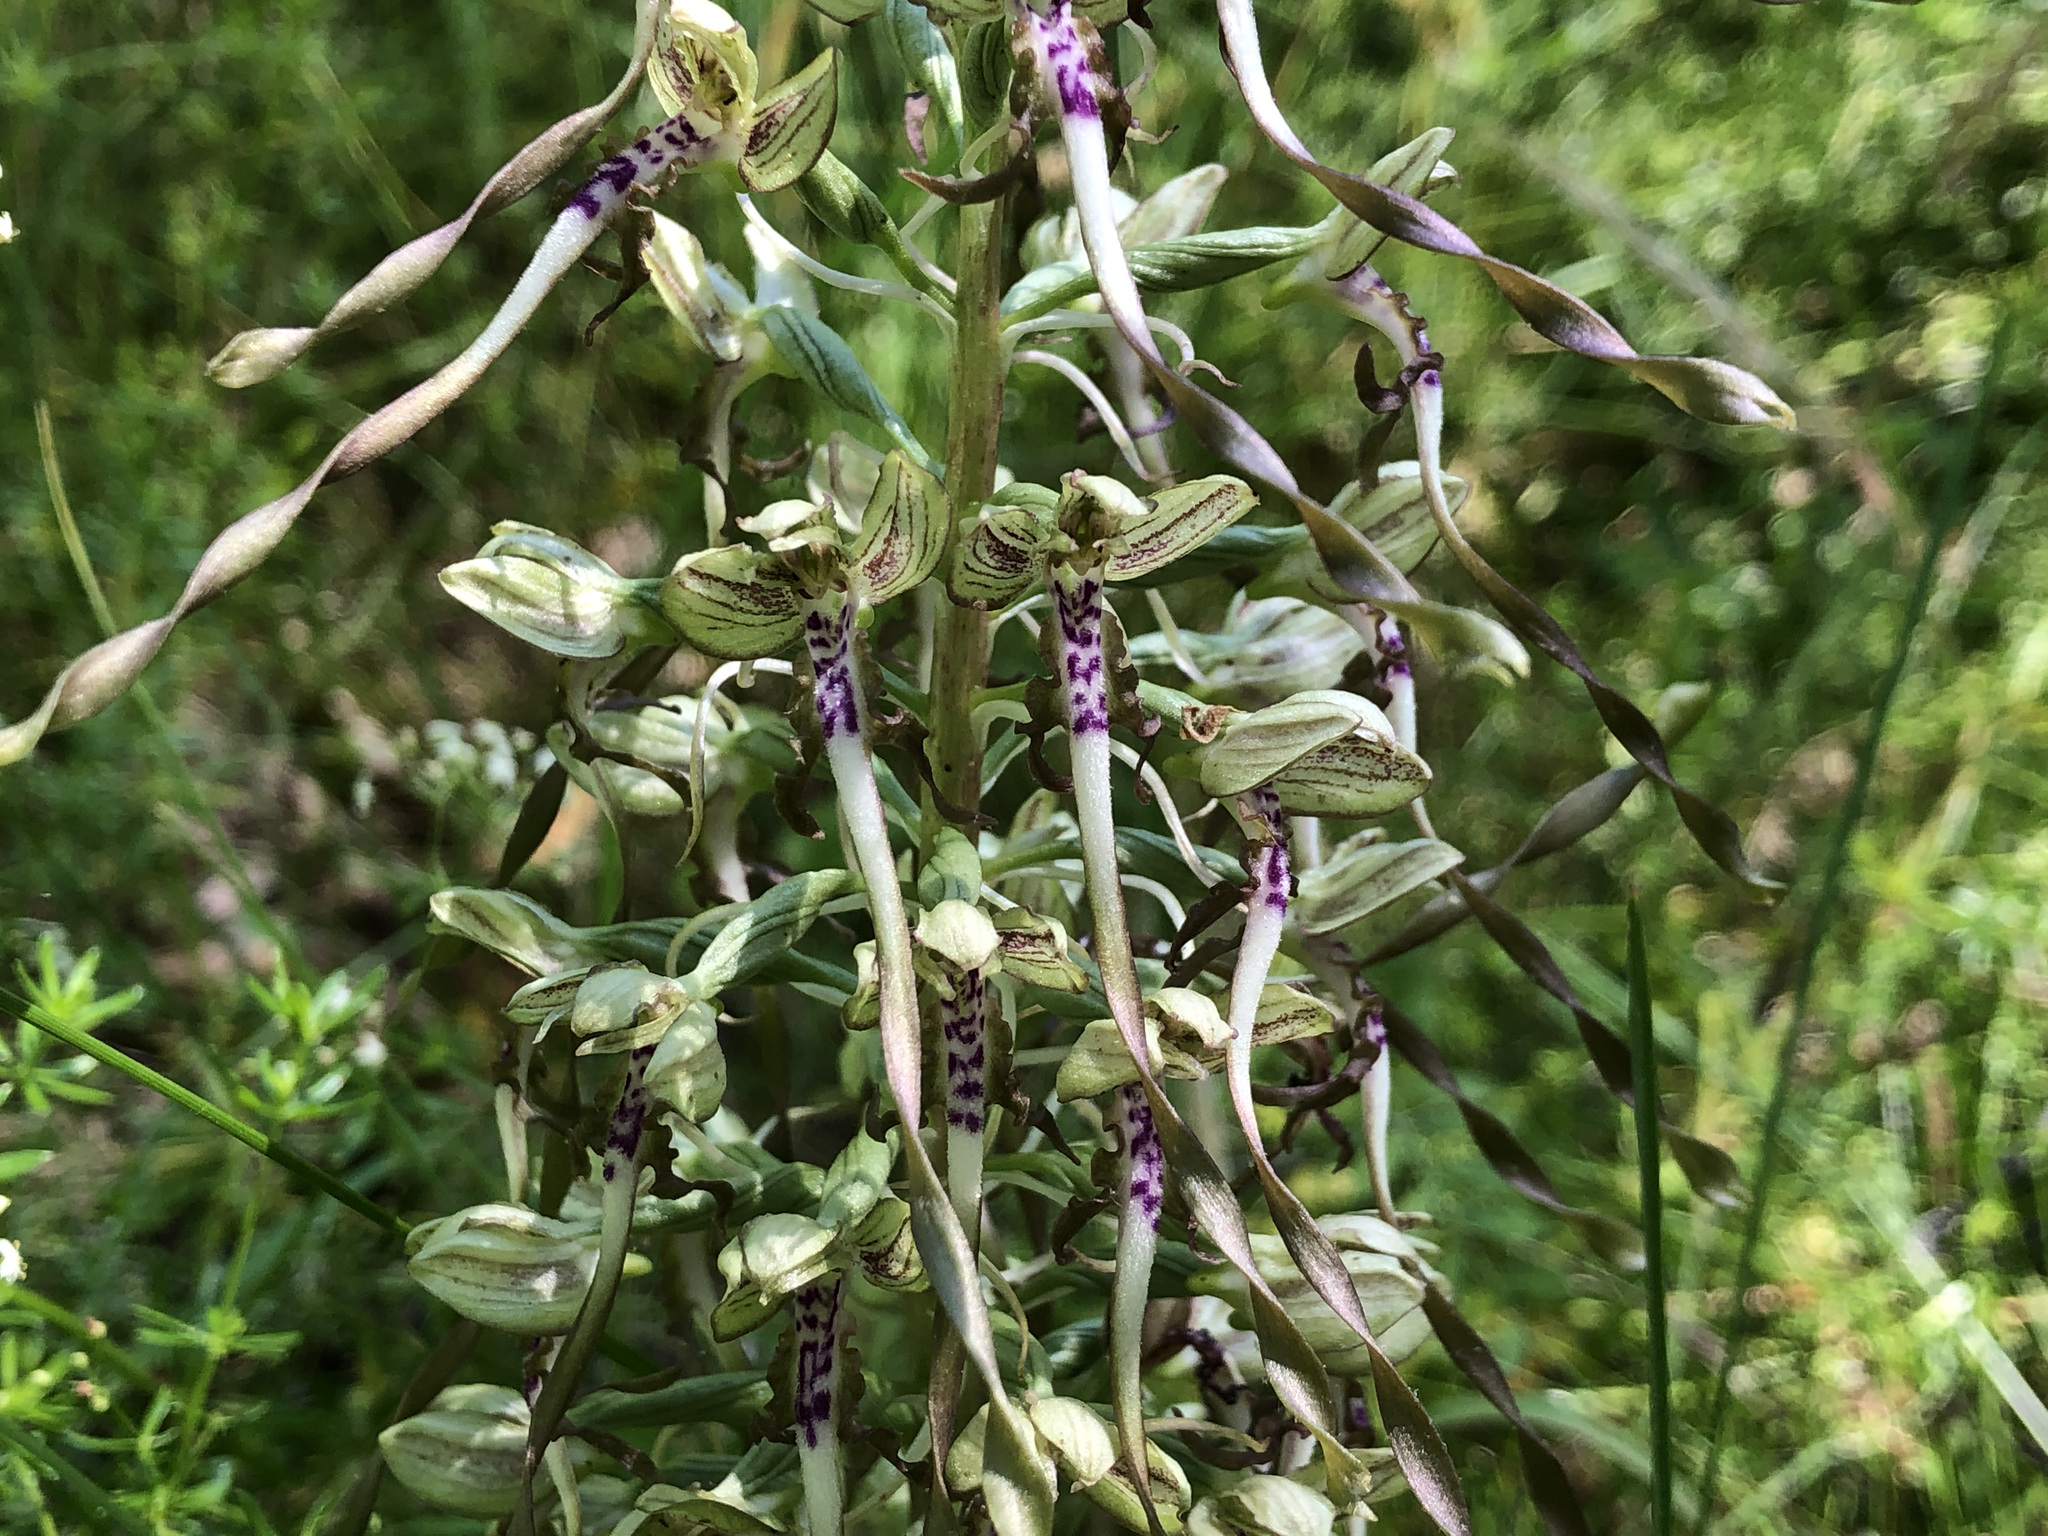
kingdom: Plantae
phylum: Tracheophyta
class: Liliopsida
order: Asparagales
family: Orchidaceae
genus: Himantoglossum
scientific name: Himantoglossum hircinum
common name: Lizard orchid
